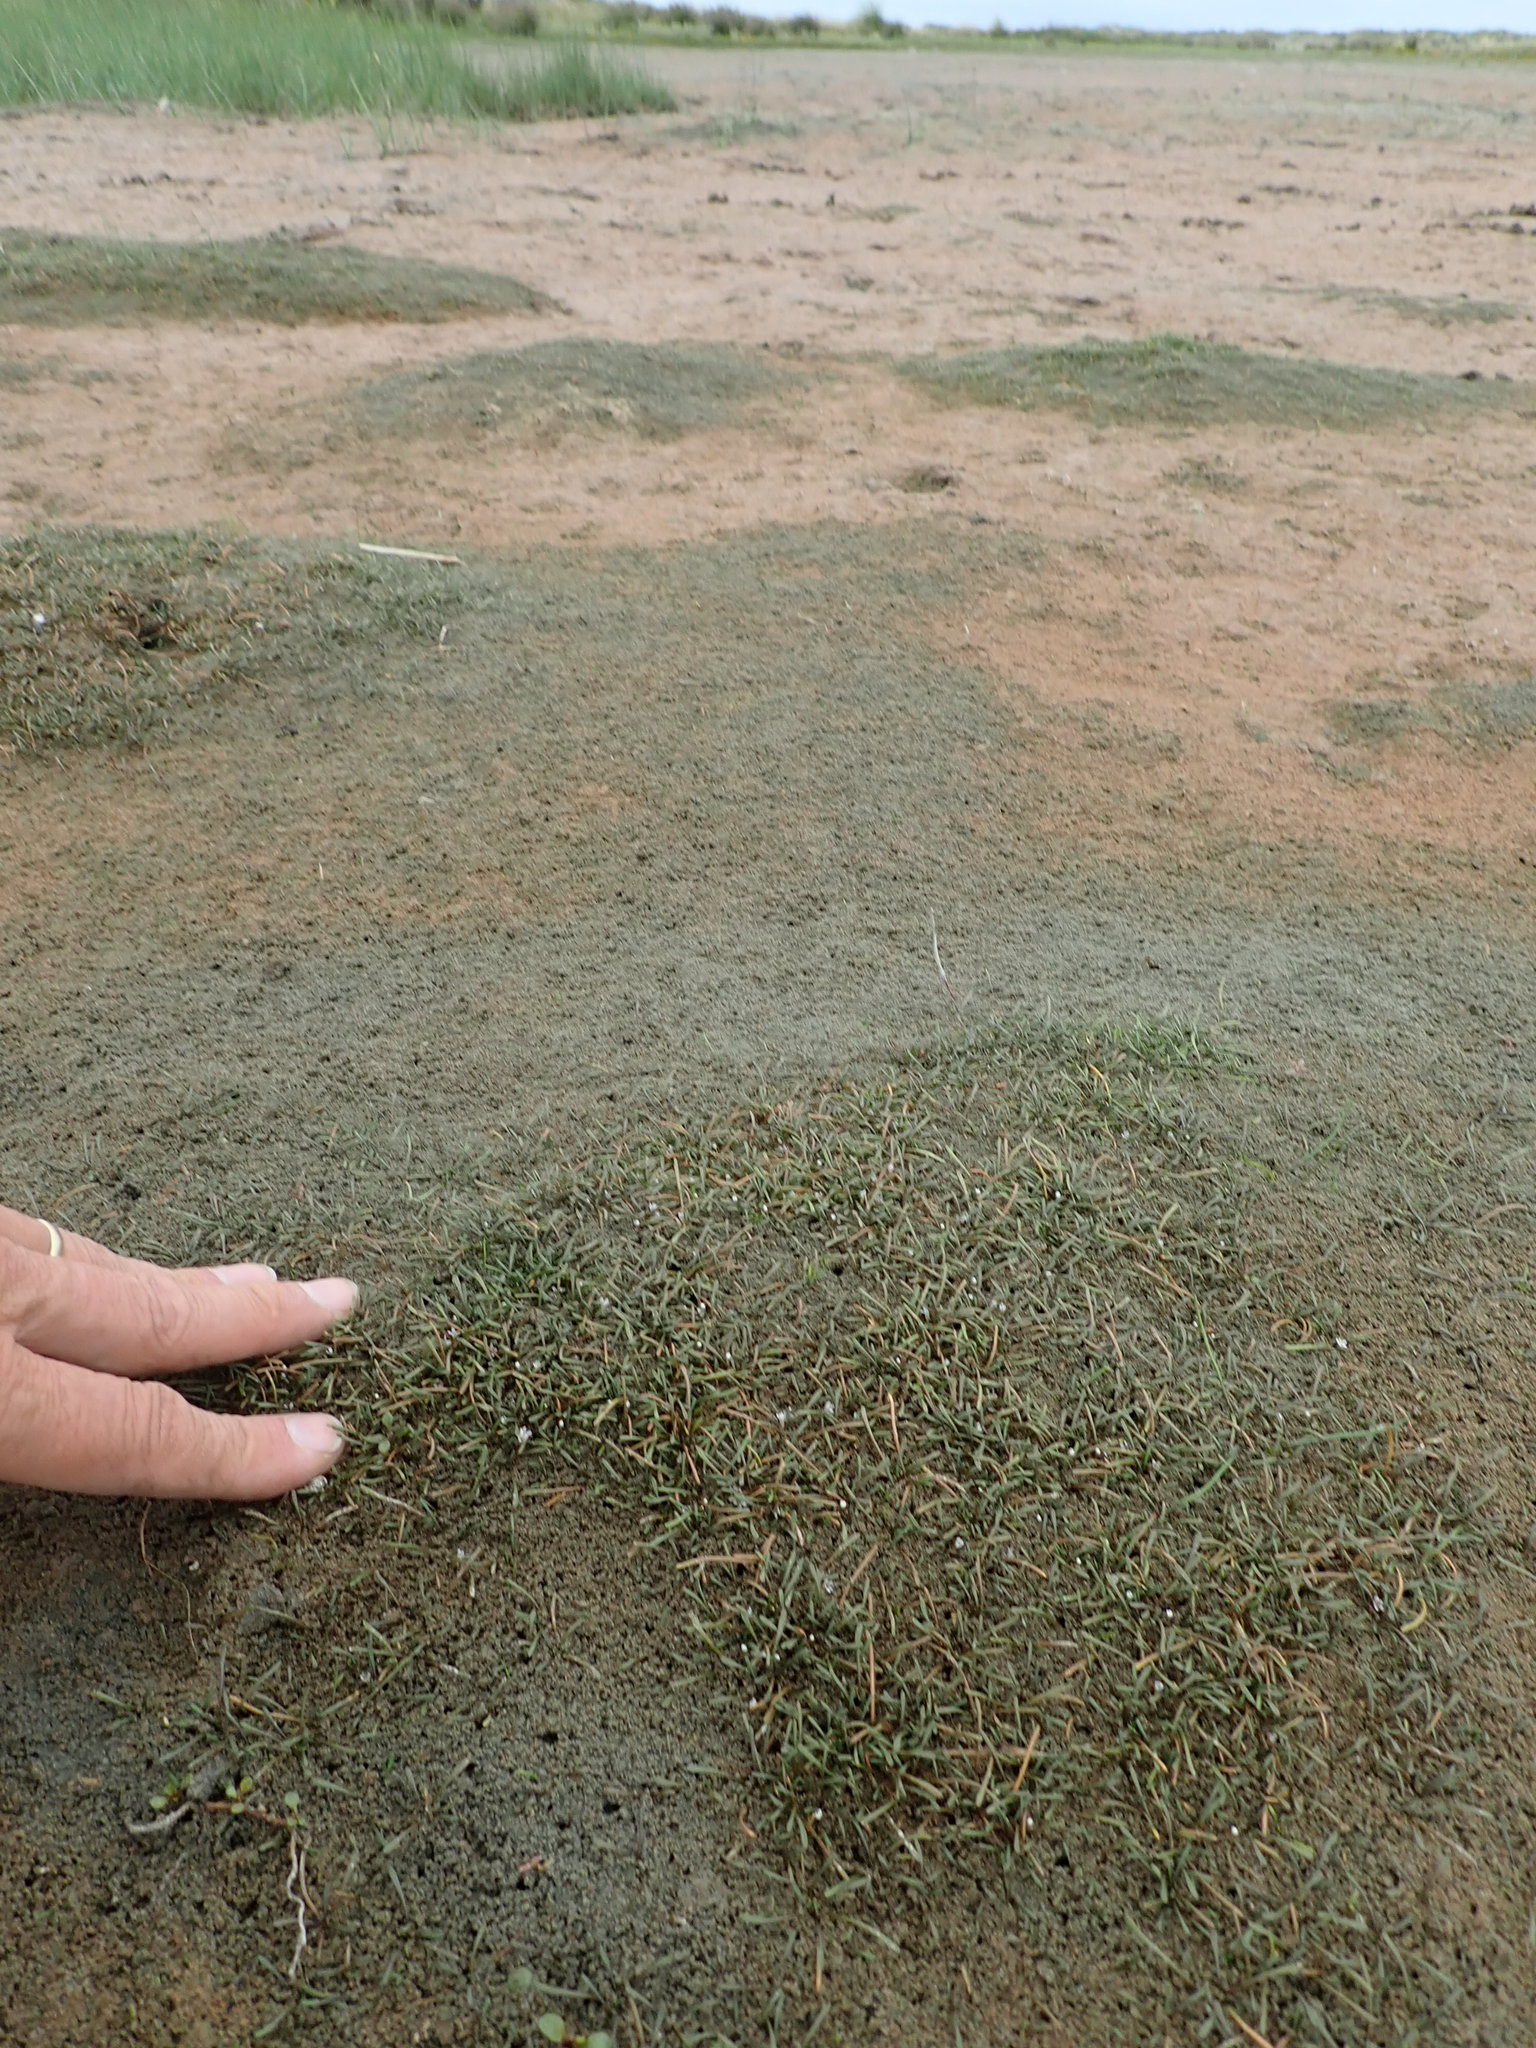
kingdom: Plantae
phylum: Tracheophyta
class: Magnoliopsida
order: Lamiales
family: Scrophulariaceae
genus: Limosella
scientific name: Limosella australis
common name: Welsh mudwort
